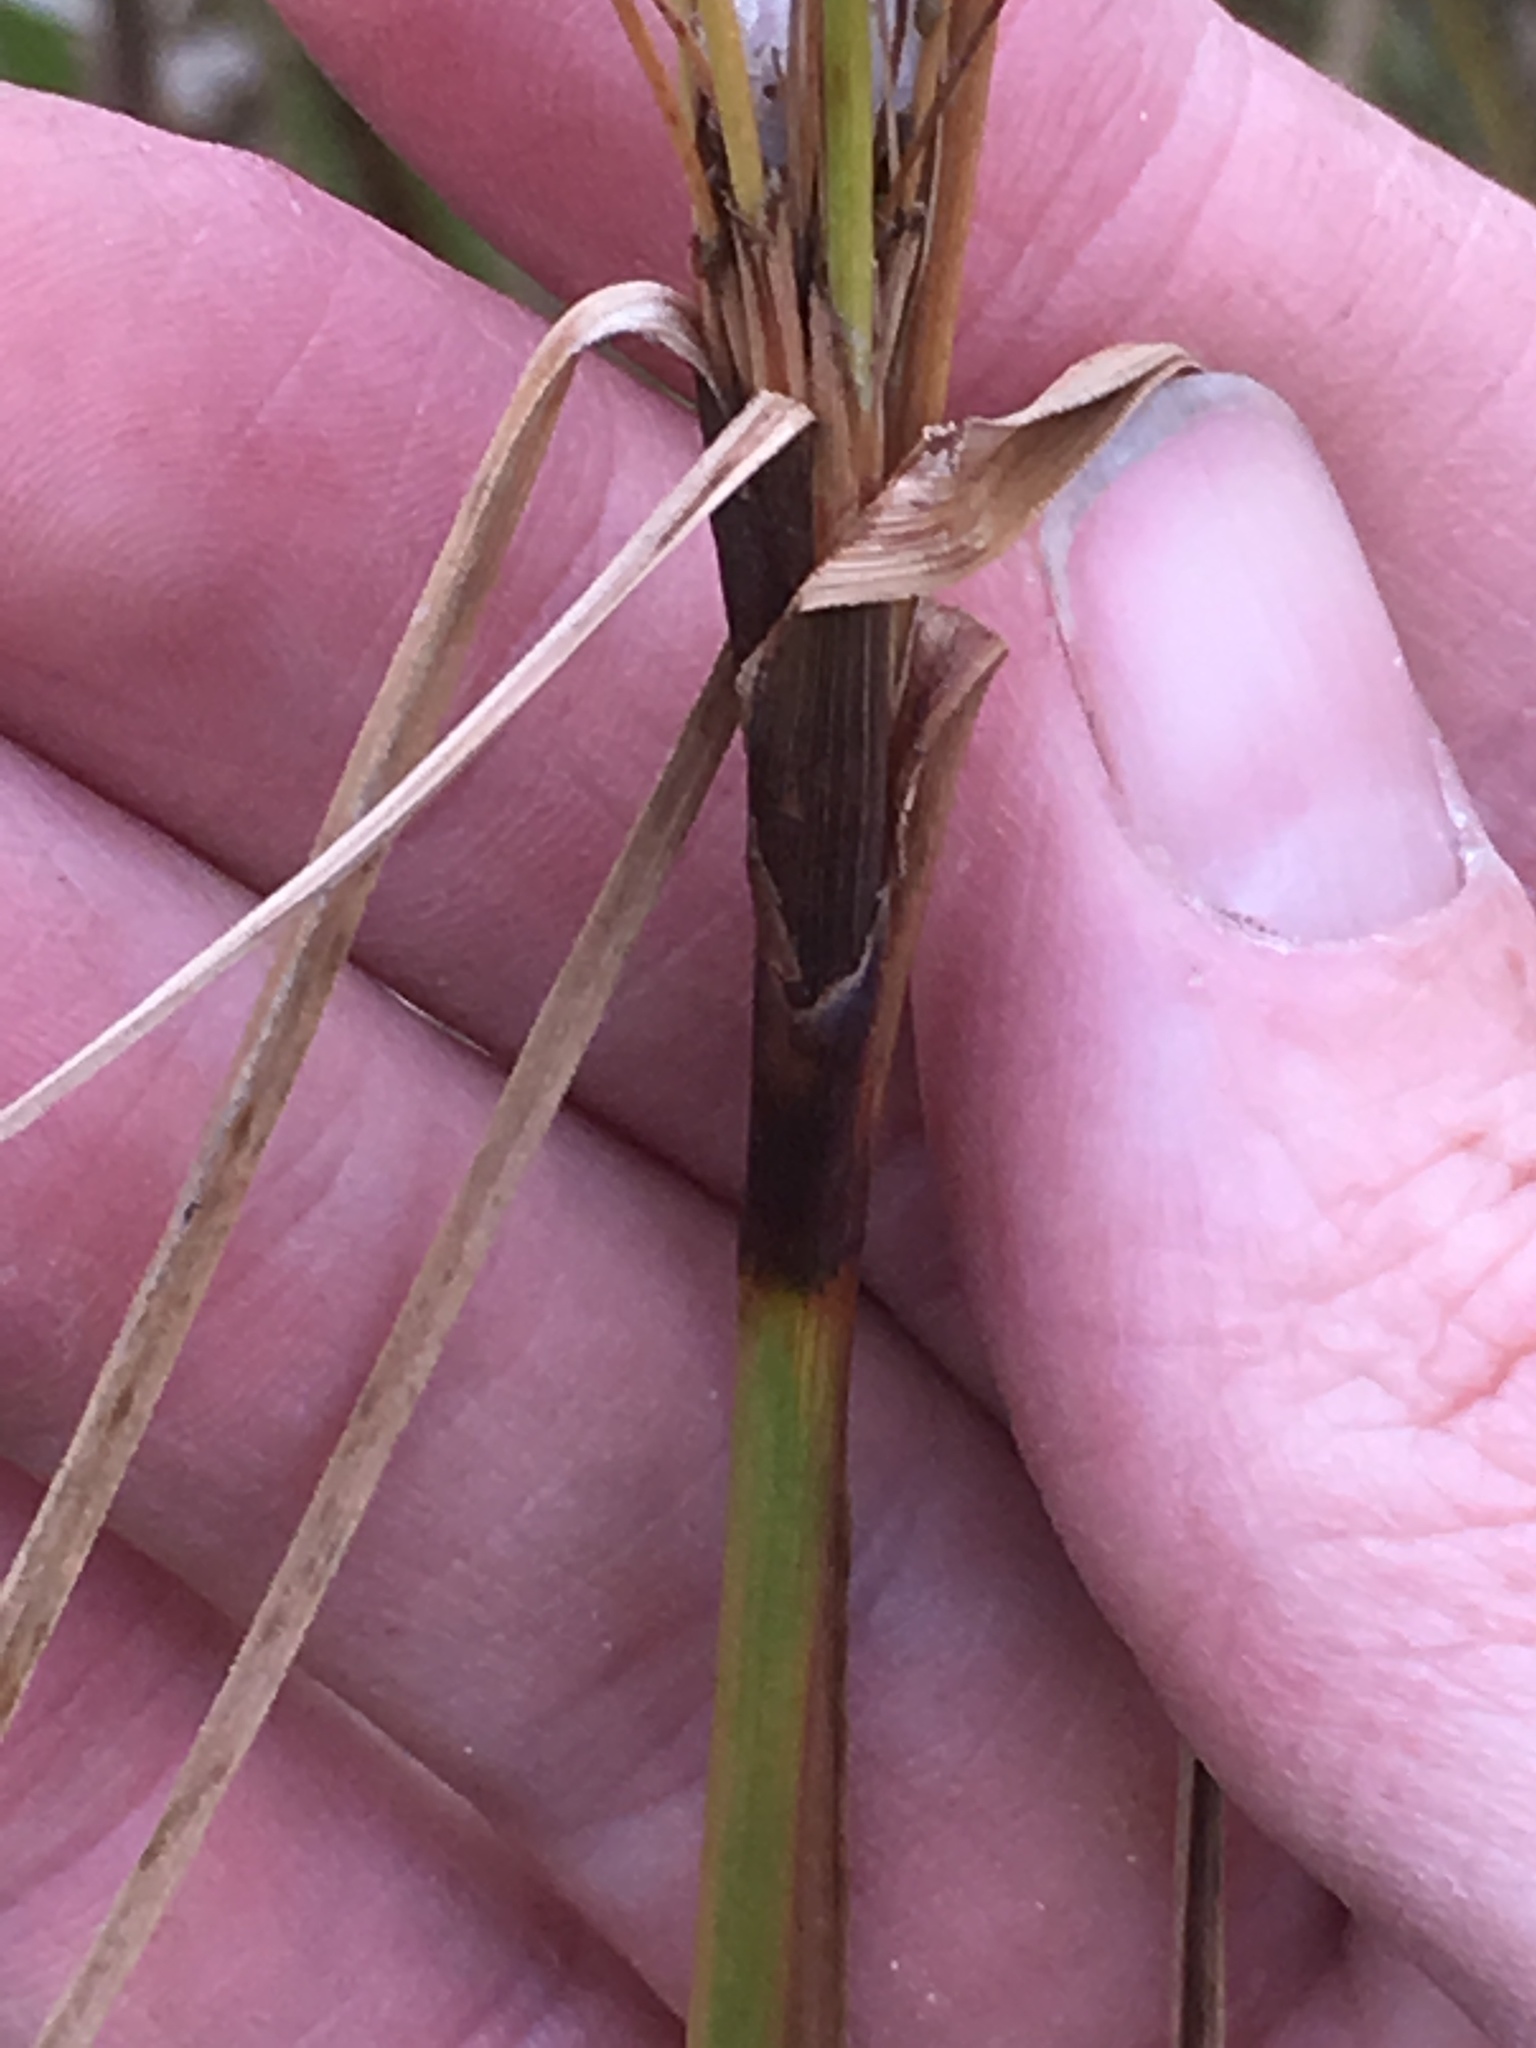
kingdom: Plantae
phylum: Tracheophyta
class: Liliopsida
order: Poales
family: Cyperaceae
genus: Scirpus
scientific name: Scirpus atrocinctus
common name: Black-girdled bulrush
